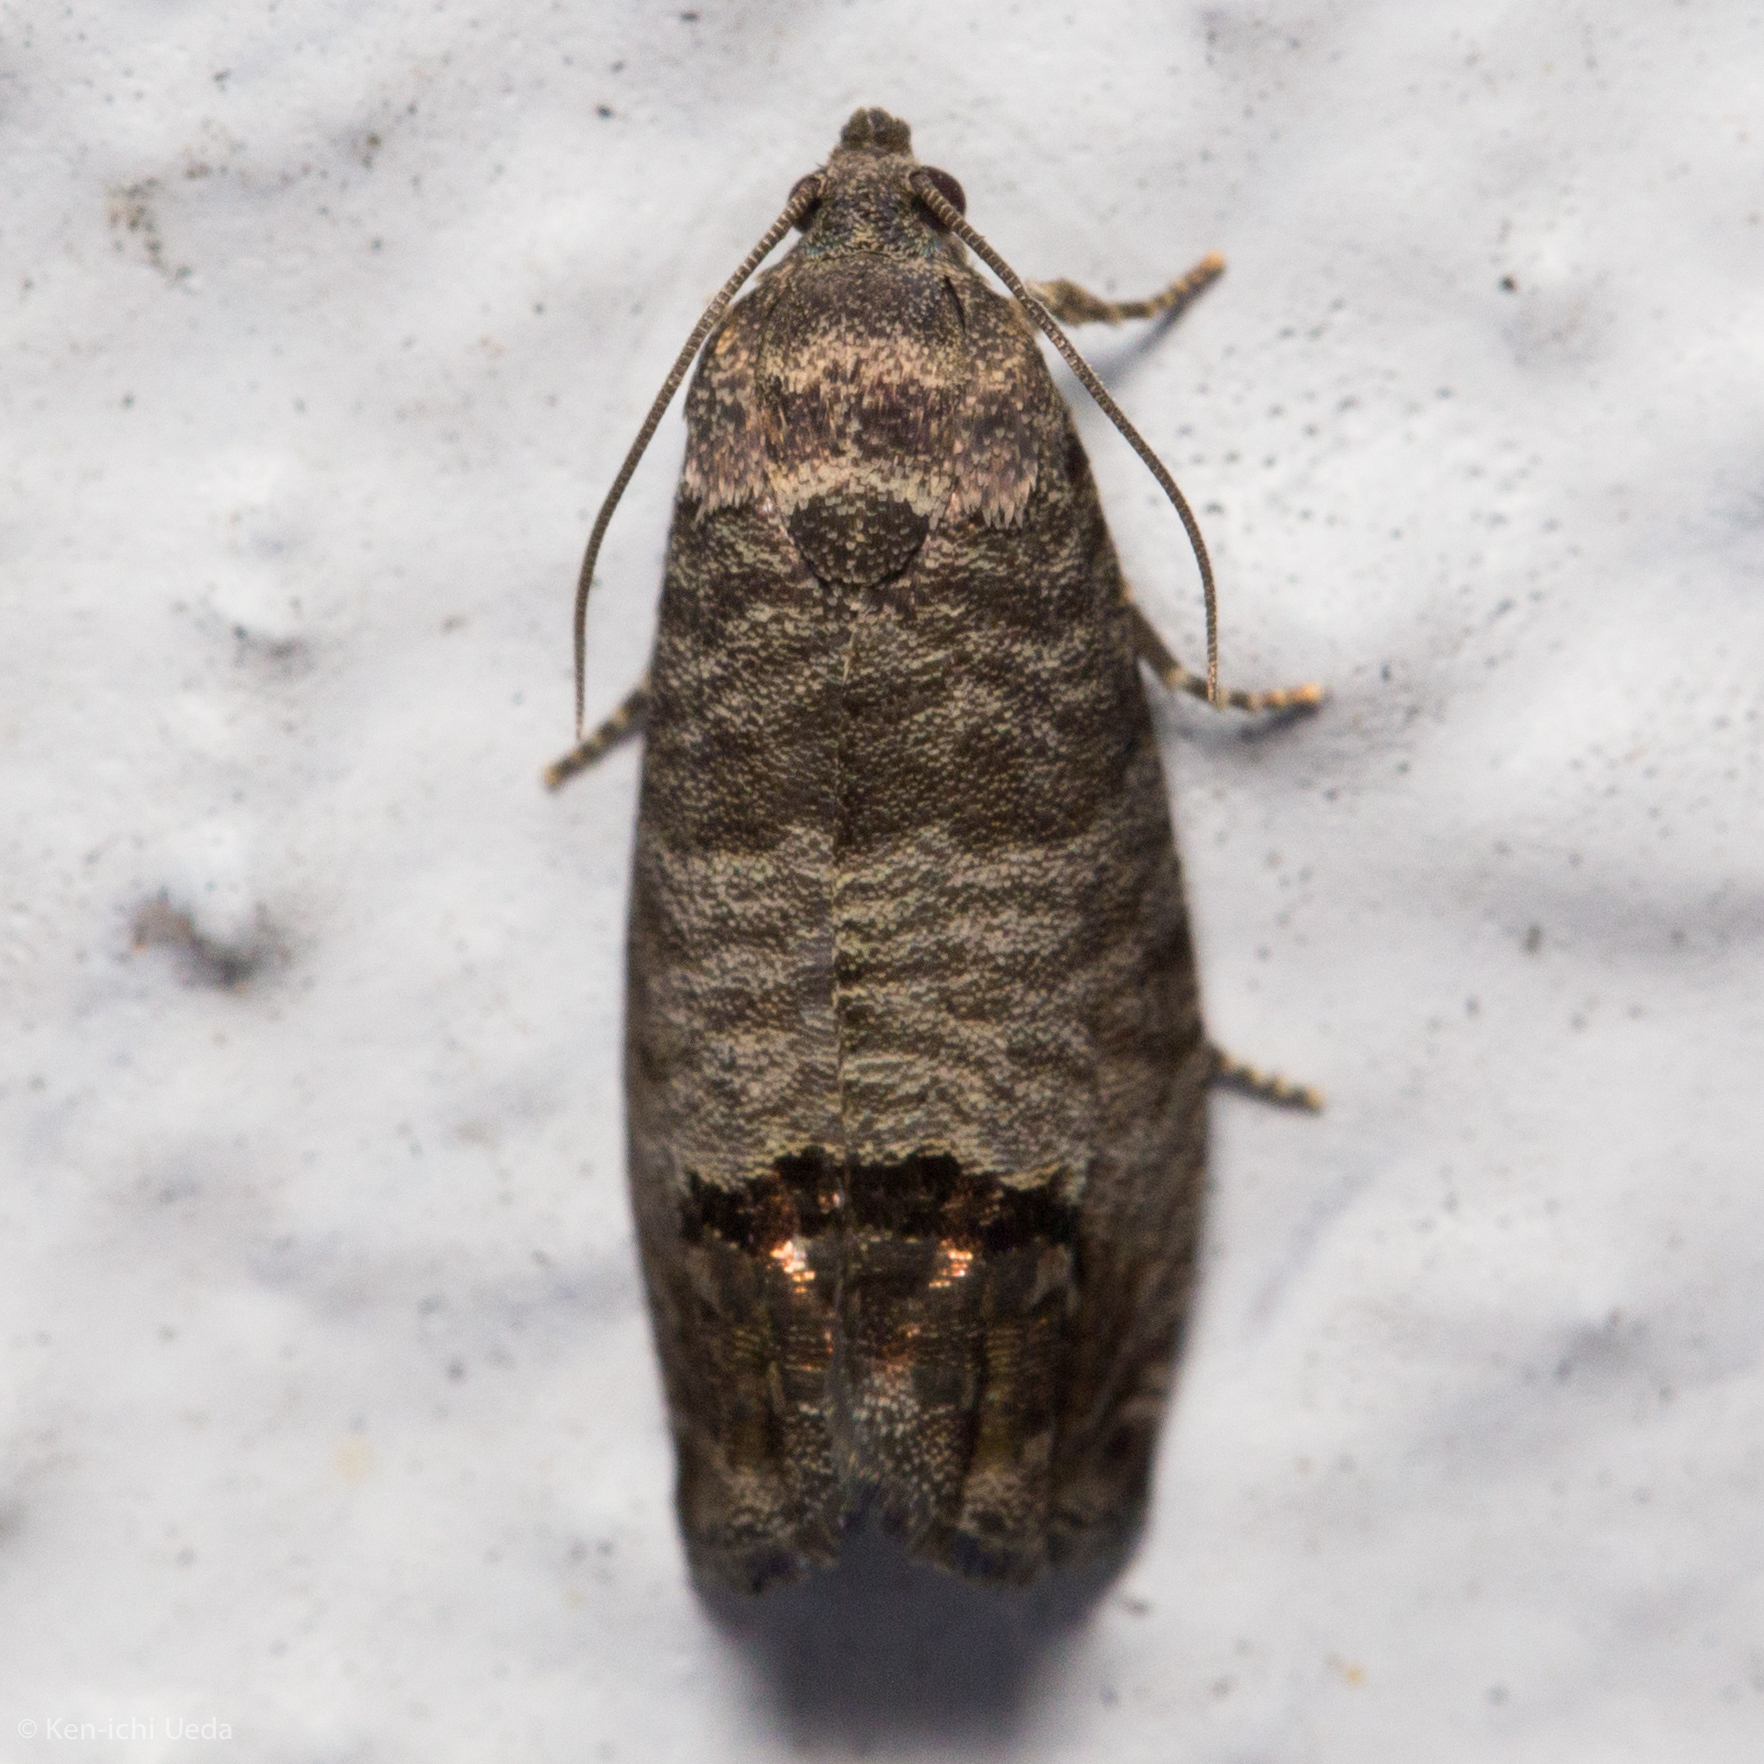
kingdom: Animalia
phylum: Arthropoda
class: Insecta
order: Lepidoptera
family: Tortricidae
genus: Cydia
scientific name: Cydia pomonella
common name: Codling moth
